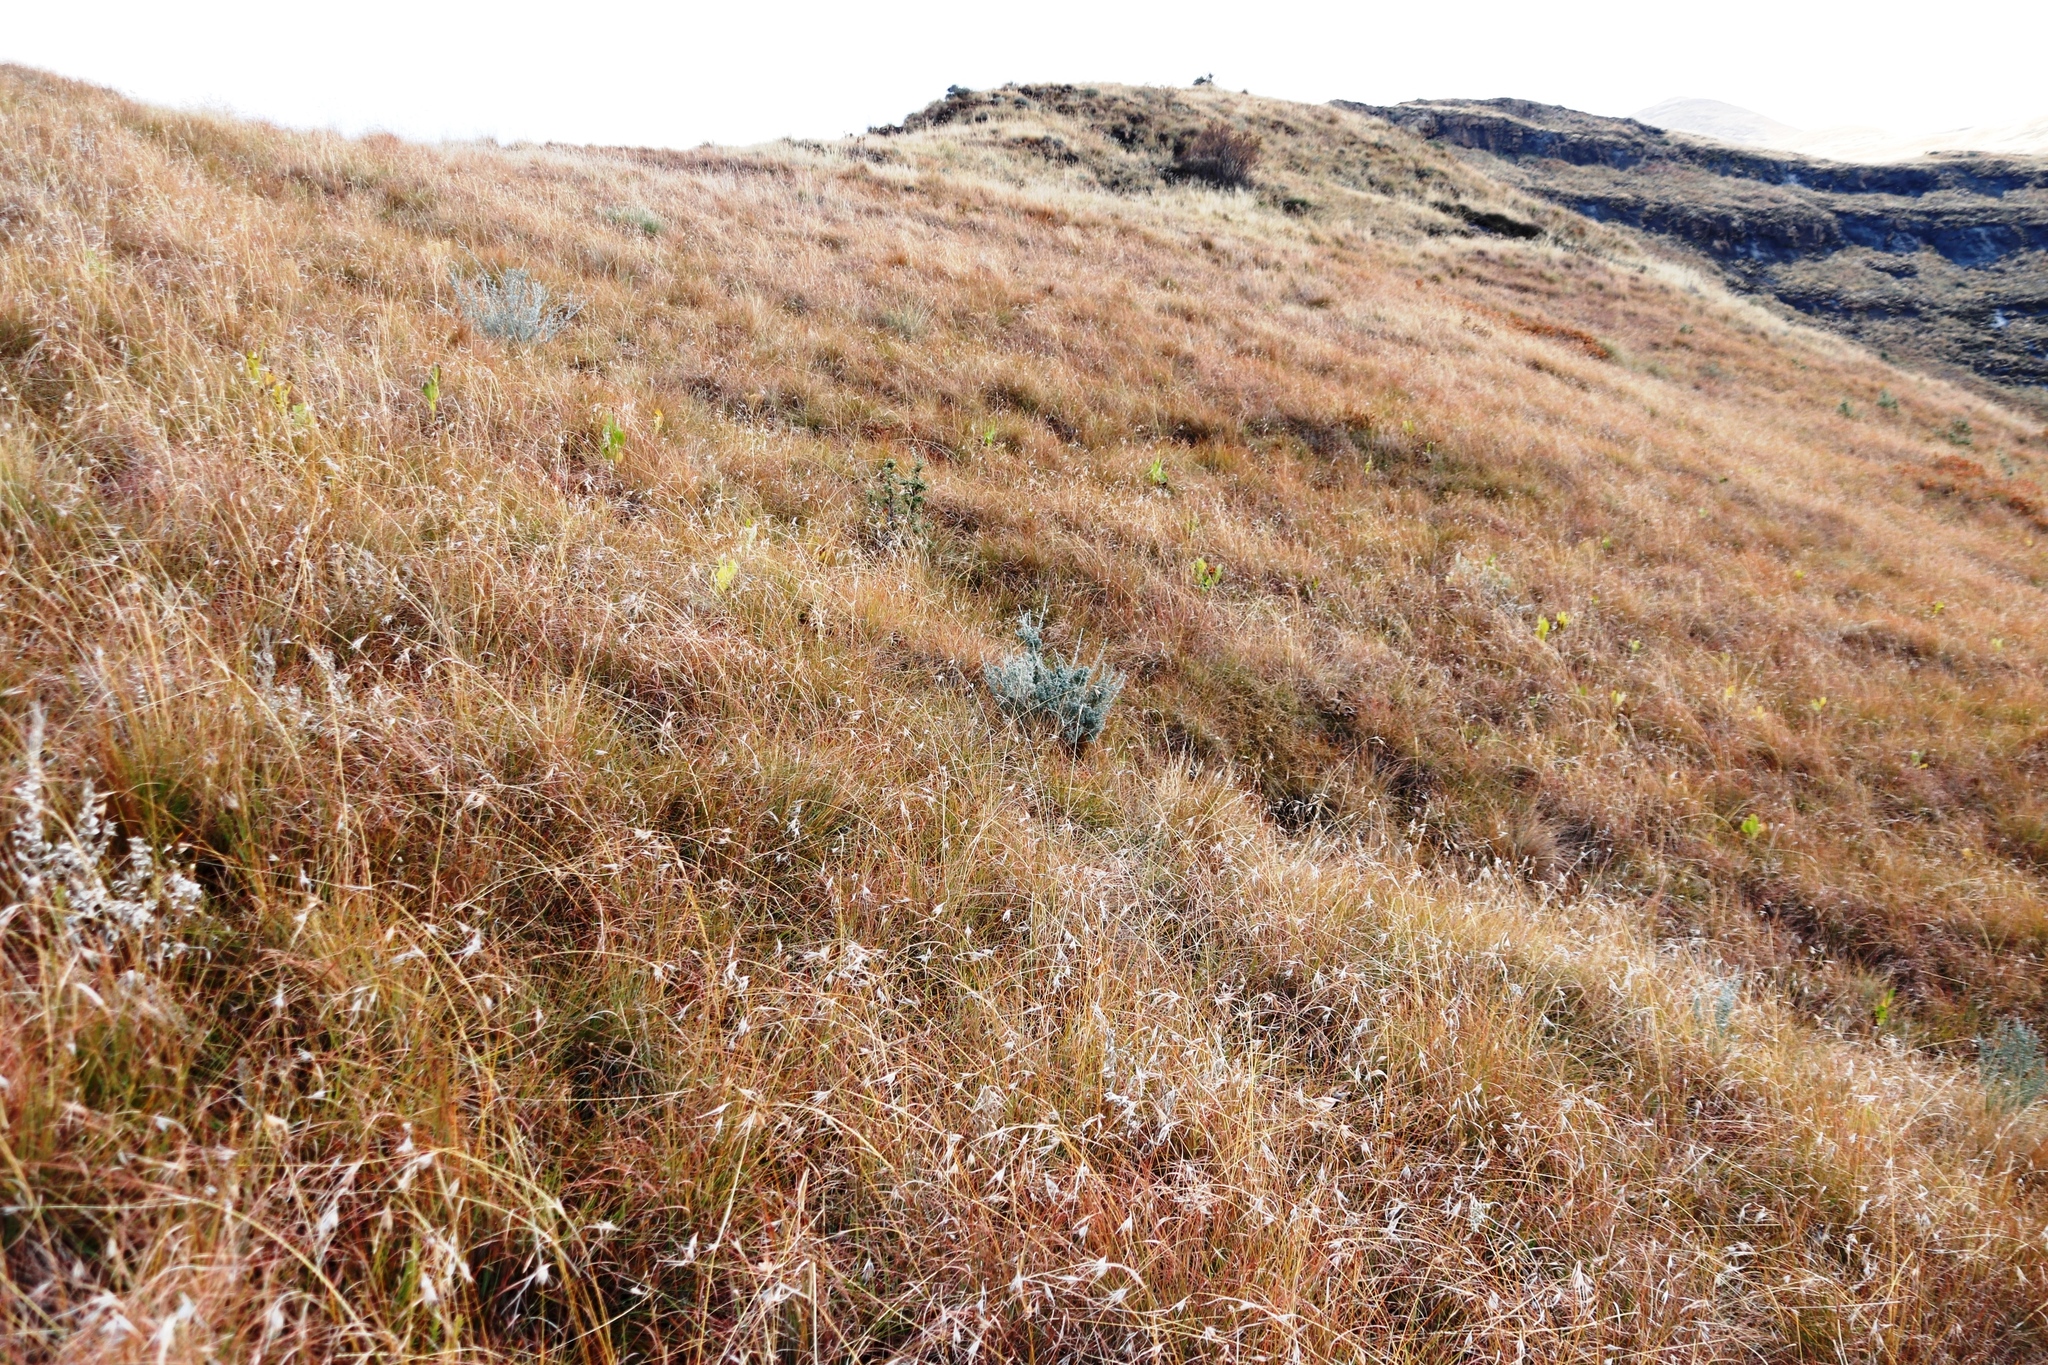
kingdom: Plantae
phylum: Tracheophyta
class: Liliopsida
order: Poales
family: Poaceae
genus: Themeda
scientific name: Themeda triandra
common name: Kangaroo grass
